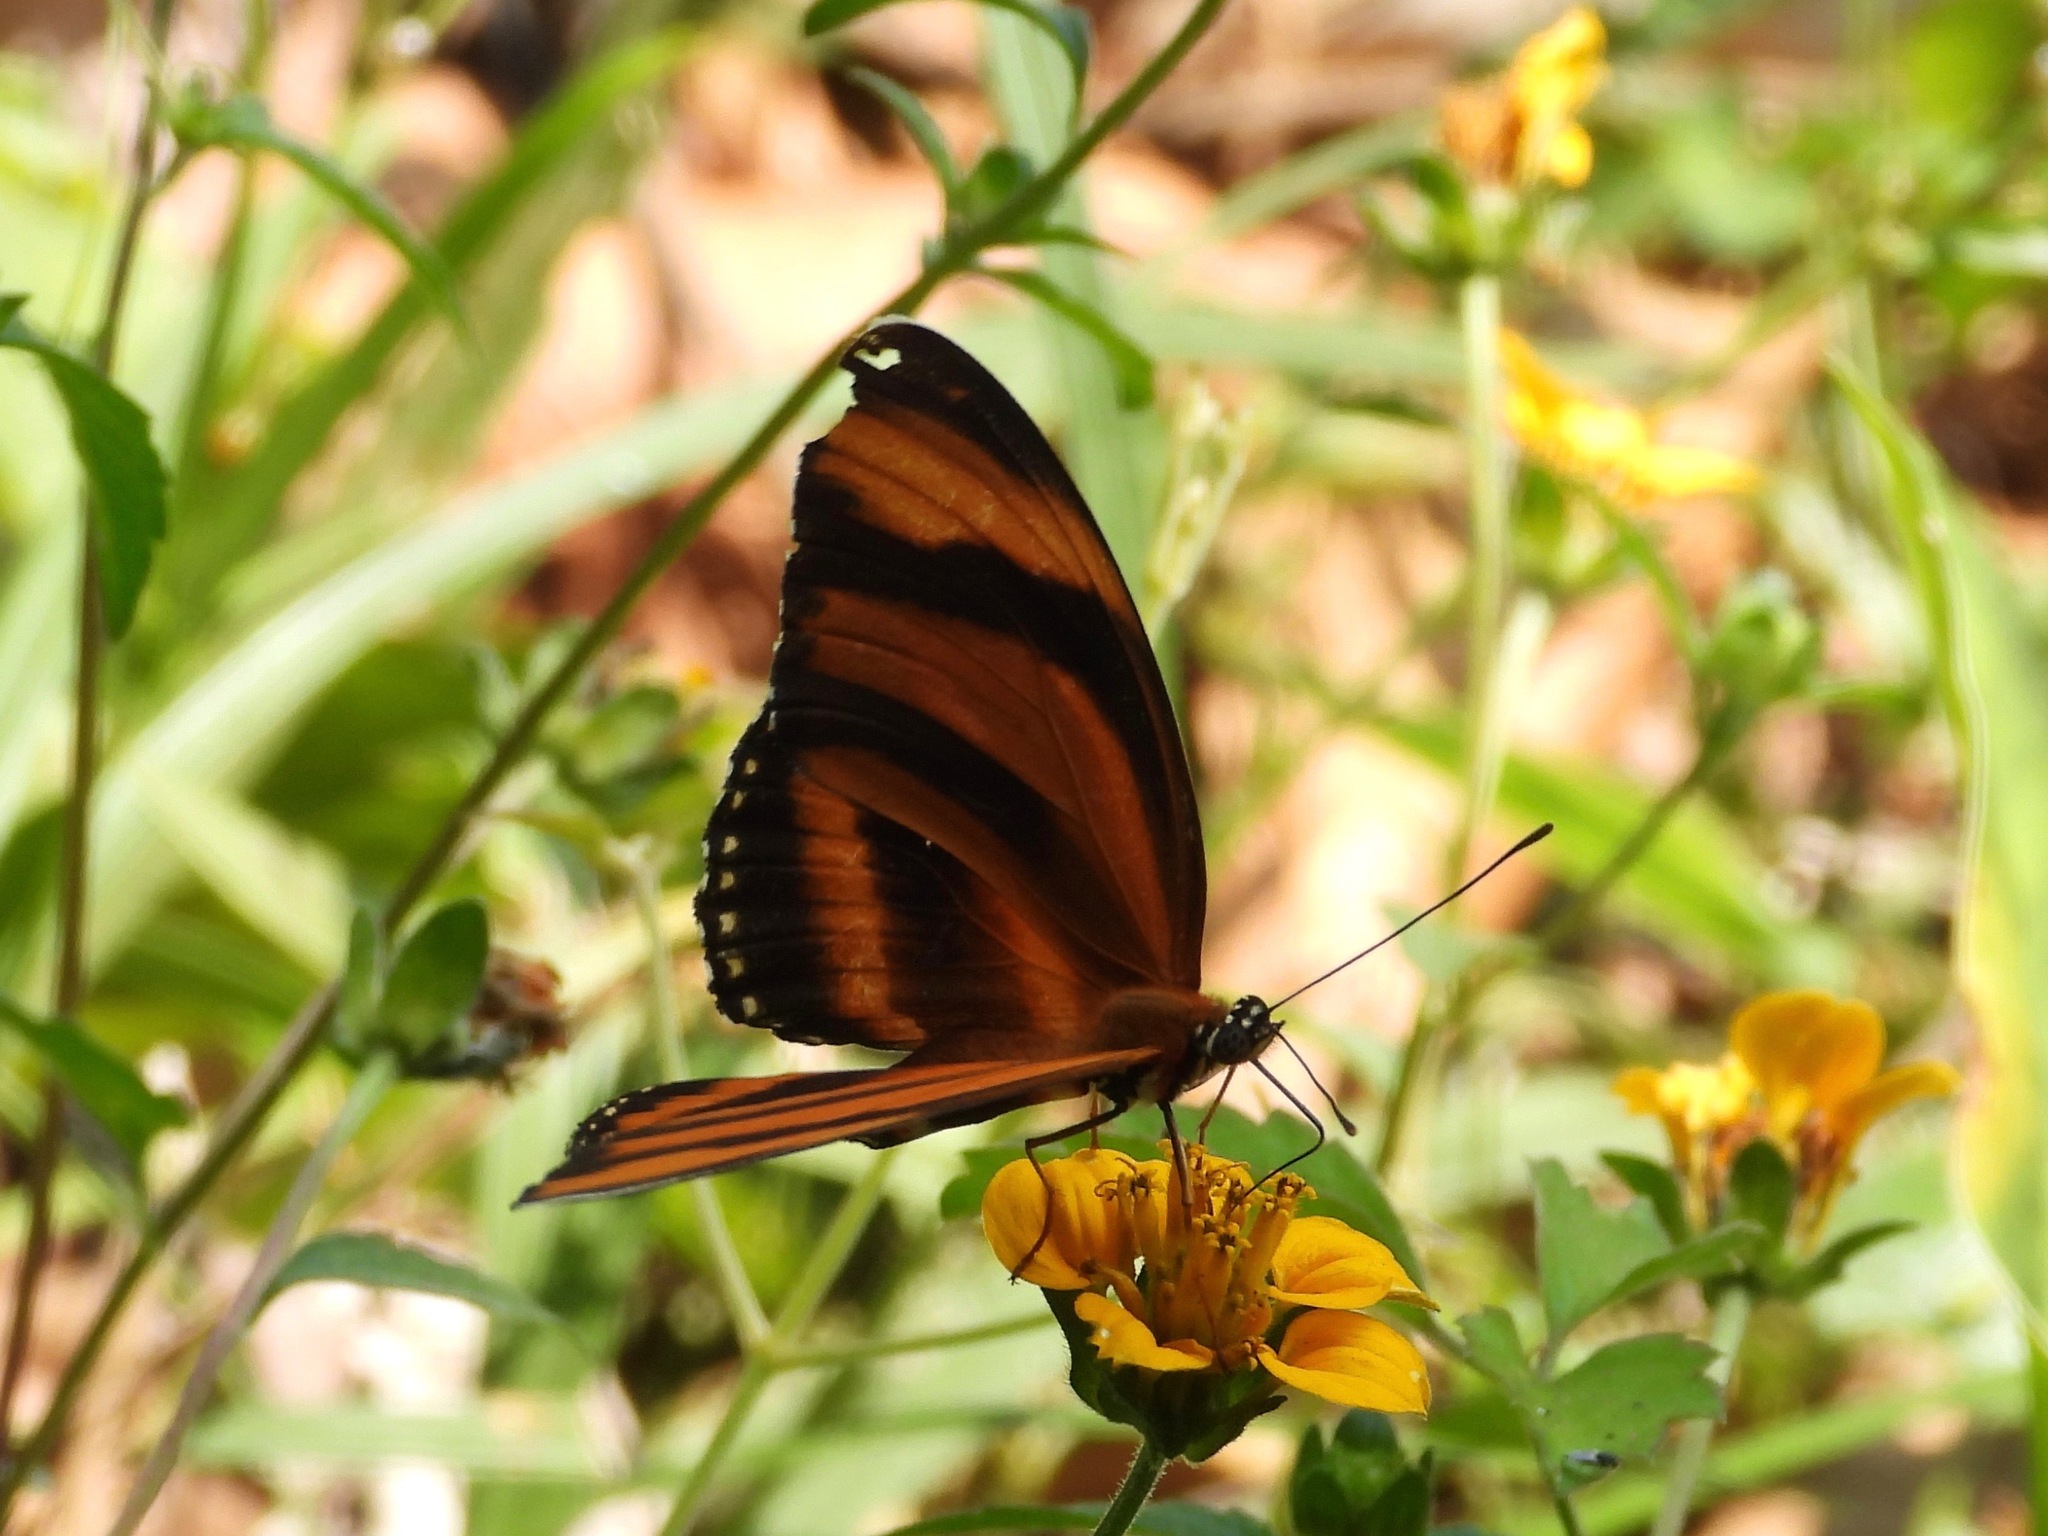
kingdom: Animalia
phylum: Arthropoda
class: Insecta
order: Lepidoptera
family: Nymphalidae
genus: Dryadula
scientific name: Dryadula phaetusa
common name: Banded orange heliconian
